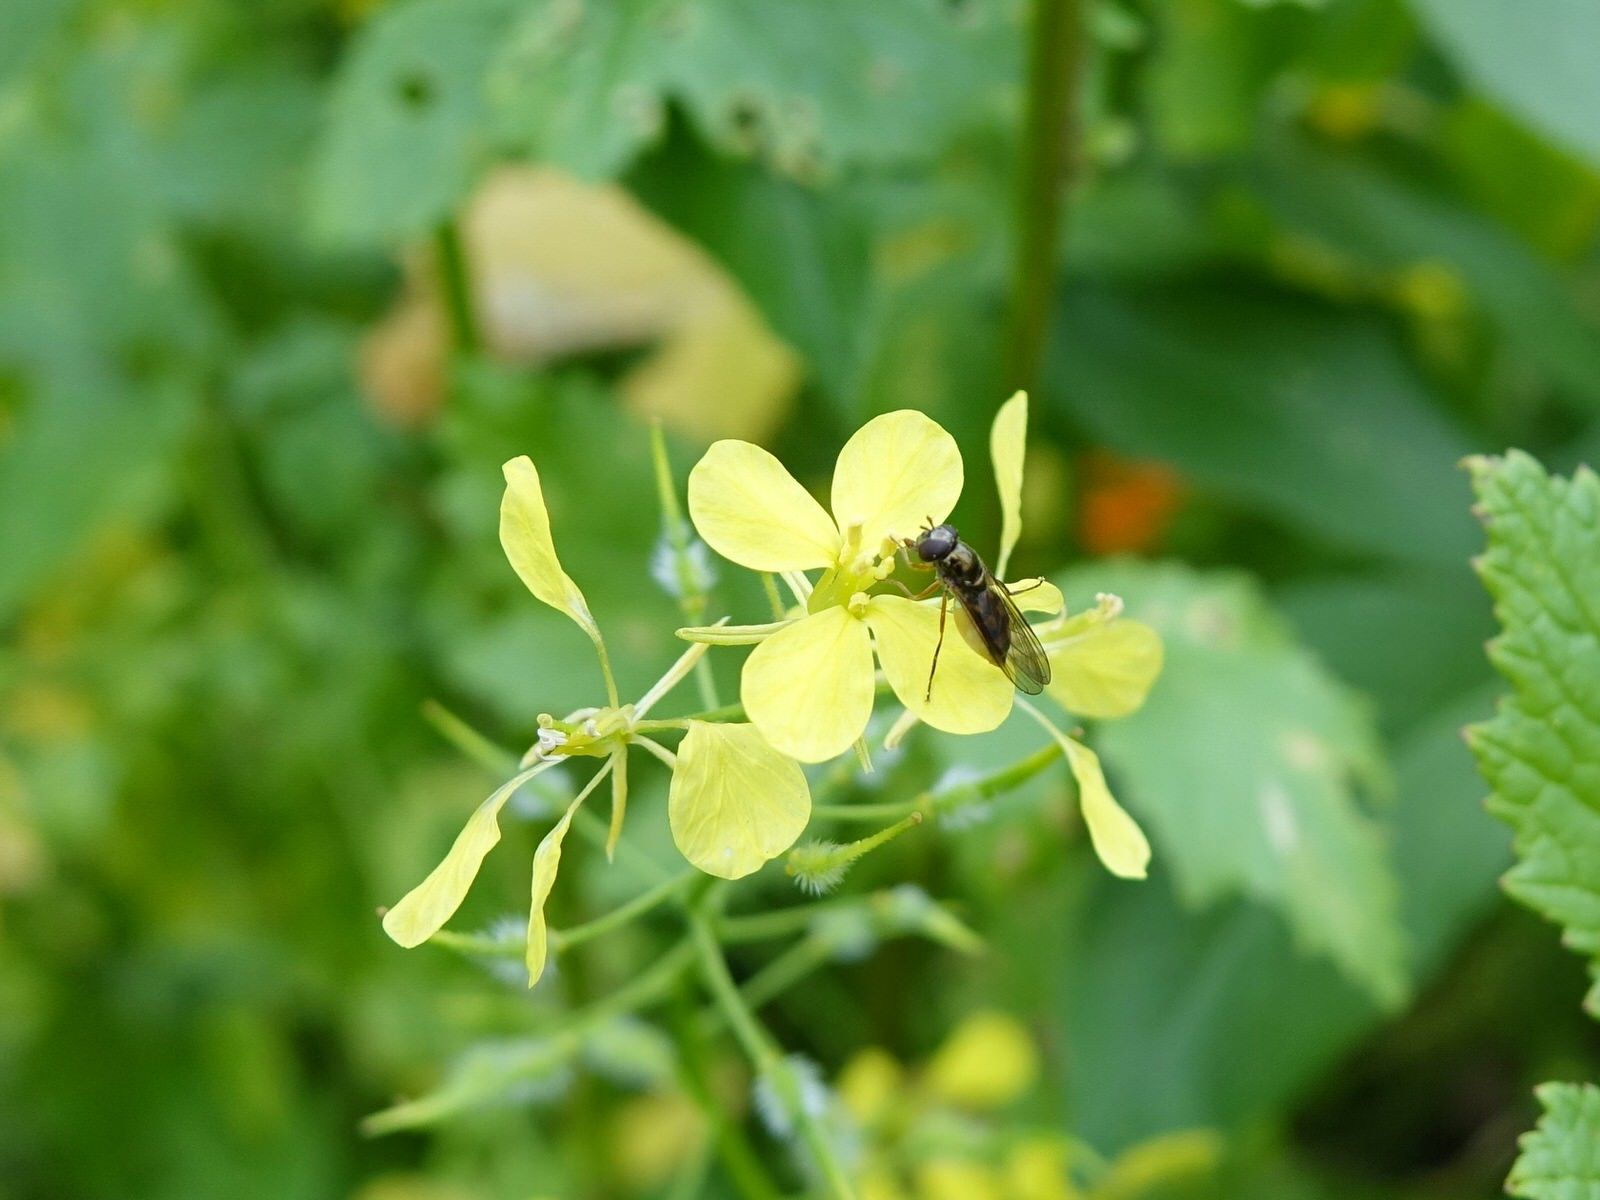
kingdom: Animalia
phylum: Arthropoda
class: Insecta
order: Diptera
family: Syrphidae
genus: Melanostoma
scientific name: Melanostoma fasciatum
